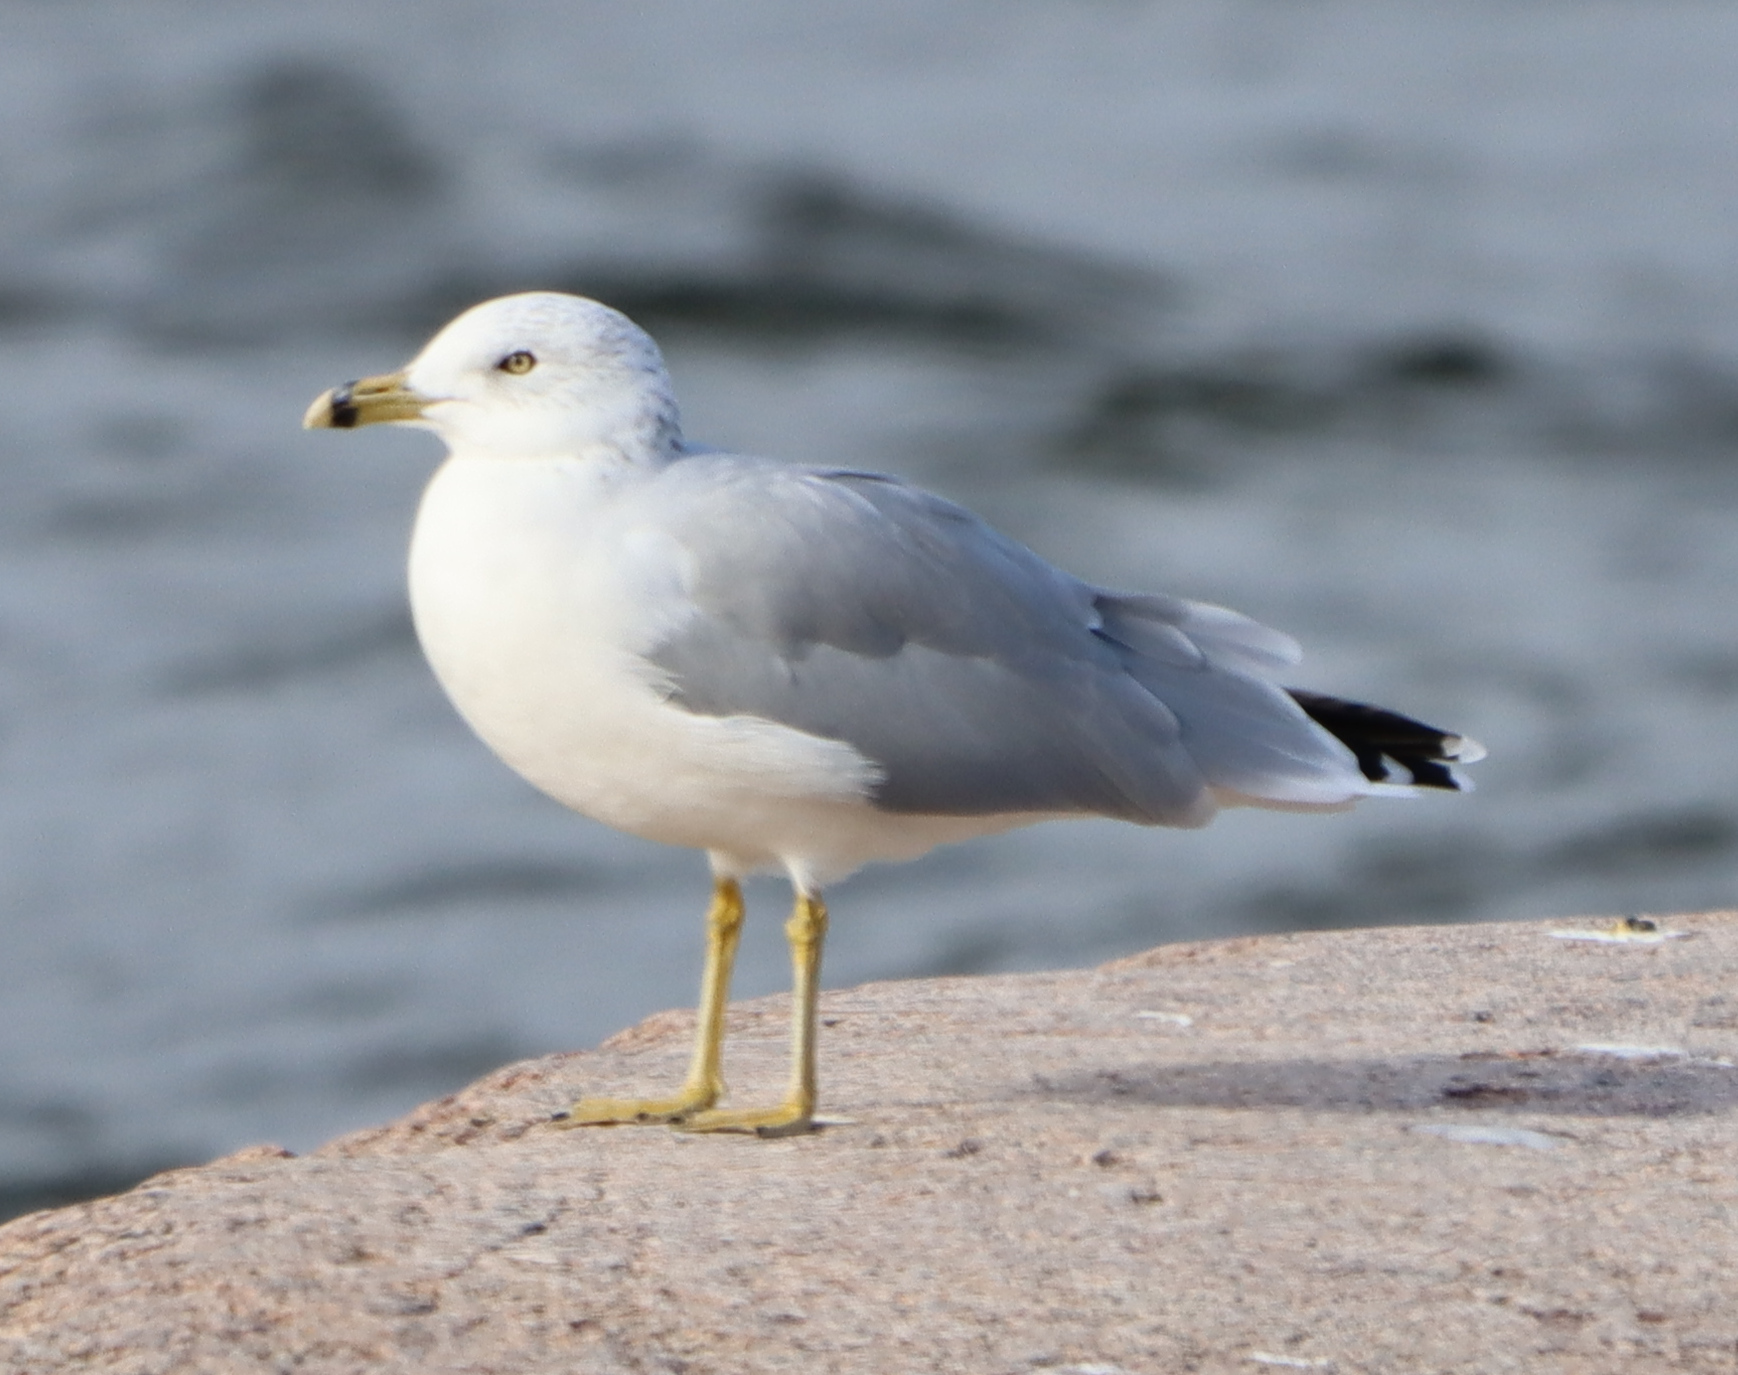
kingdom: Animalia
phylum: Chordata
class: Aves
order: Charadriiformes
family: Laridae
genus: Larus
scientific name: Larus delawarensis
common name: Ring-billed gull
